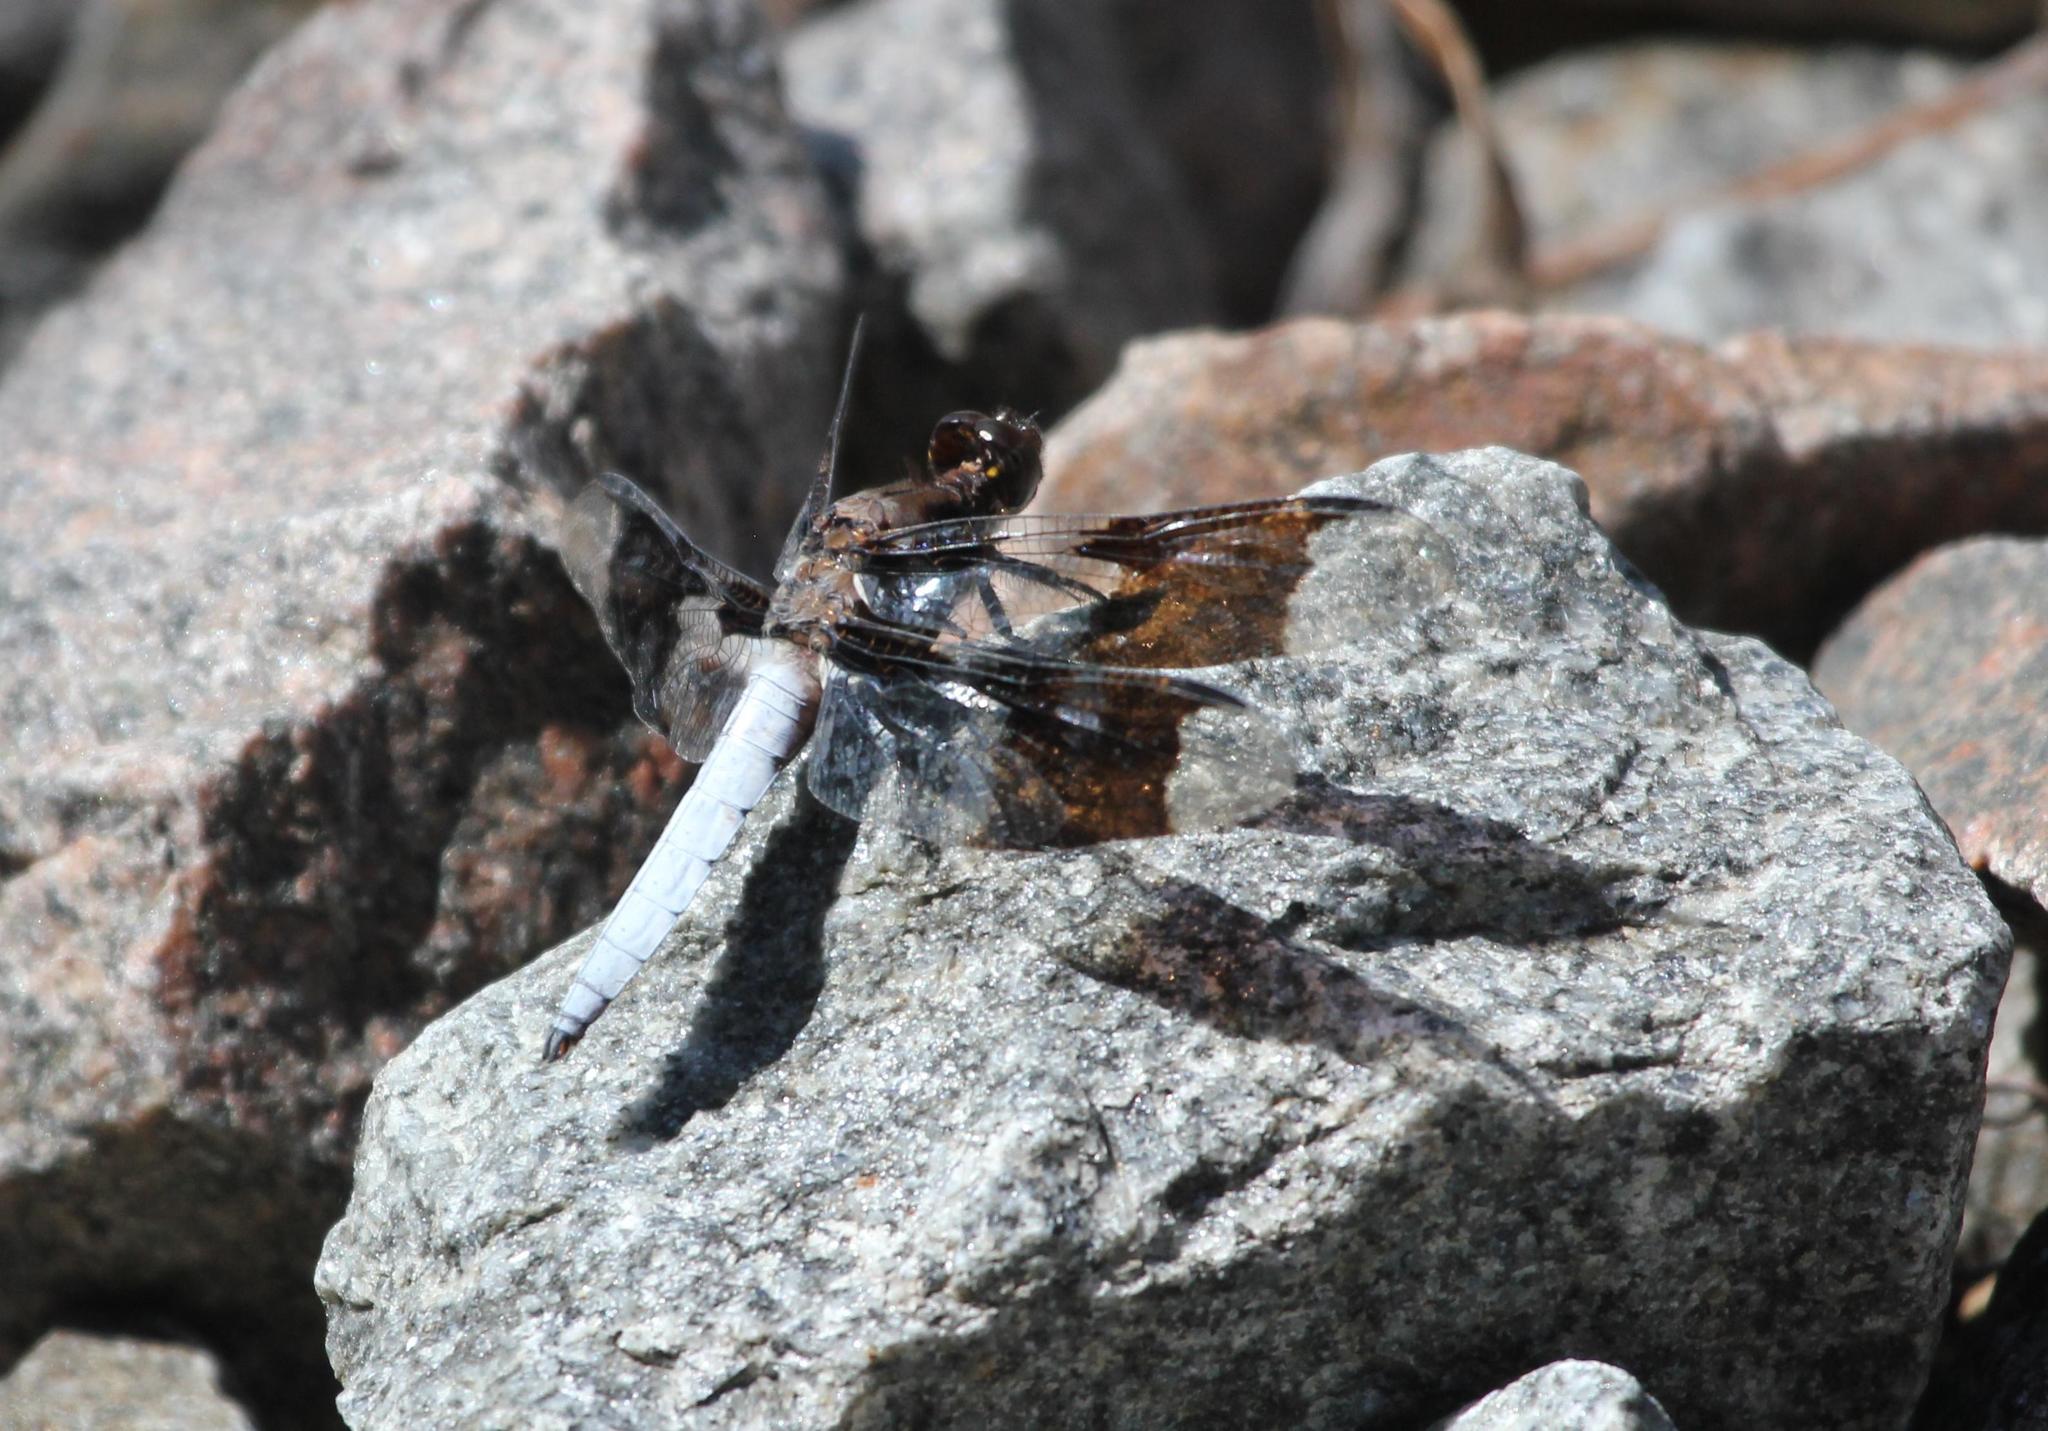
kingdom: Animalia
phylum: Arthropoda
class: Insecta
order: Odonata
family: Libellulidae
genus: Plathemis
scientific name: Plathemis lydia
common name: Common whitetail
